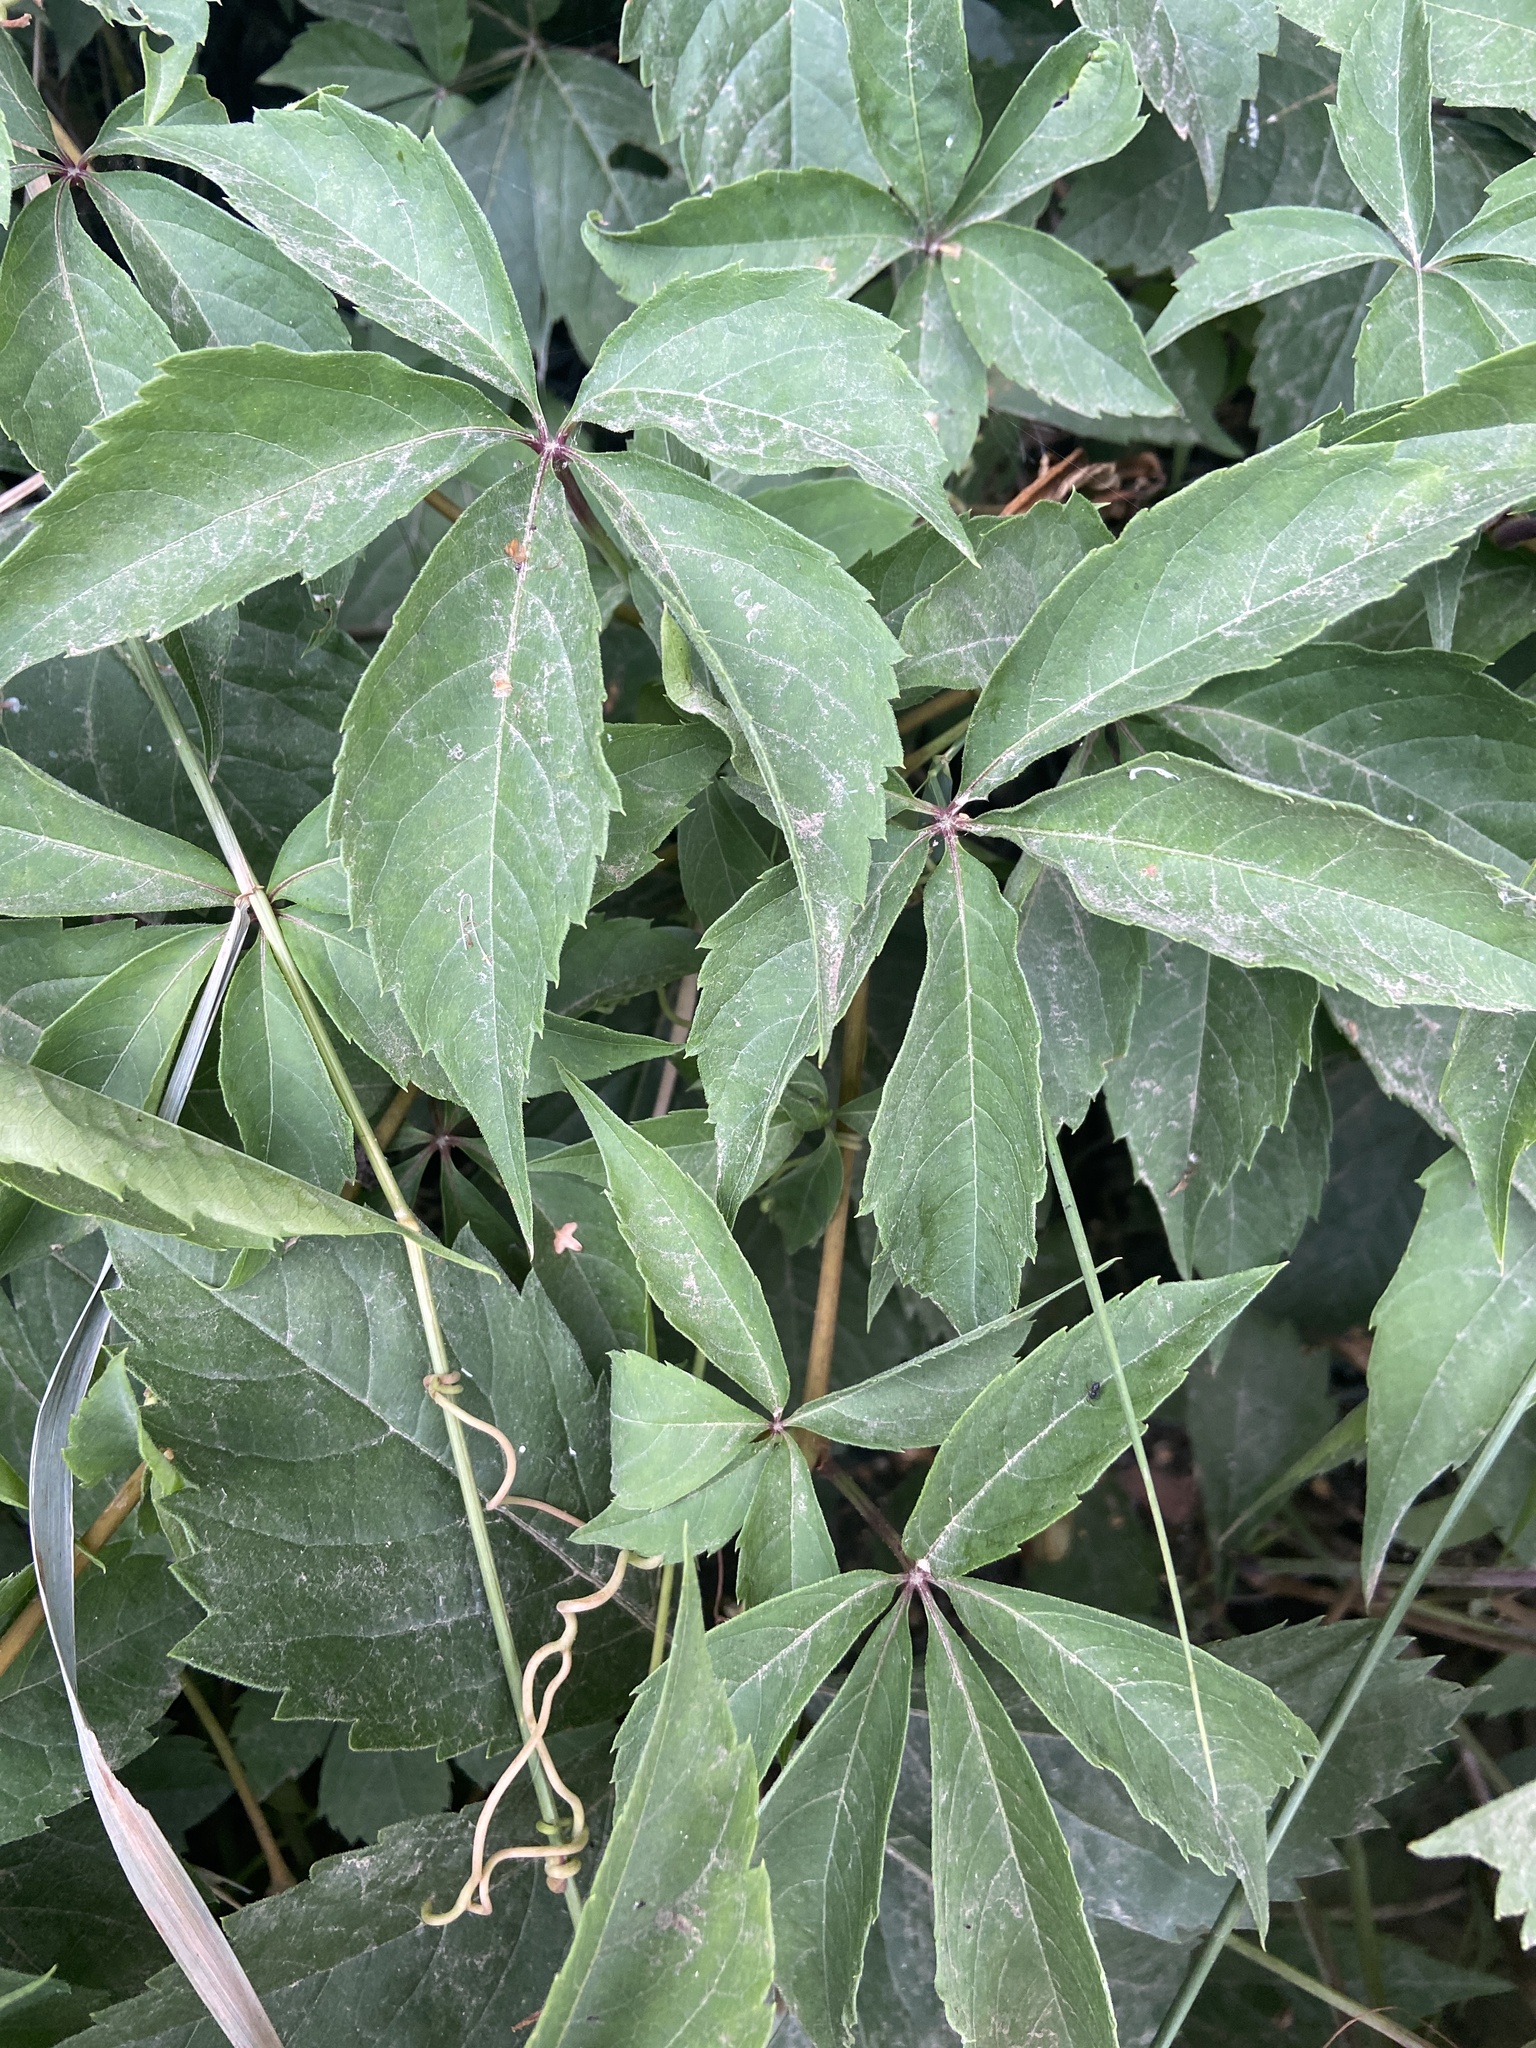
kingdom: Plantae
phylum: Tracheophyta
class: Magnoliopsida
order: Vitales
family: Vitaceae
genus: Parthenocissus
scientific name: Parthenocissus inserta
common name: False virginia-creeper
